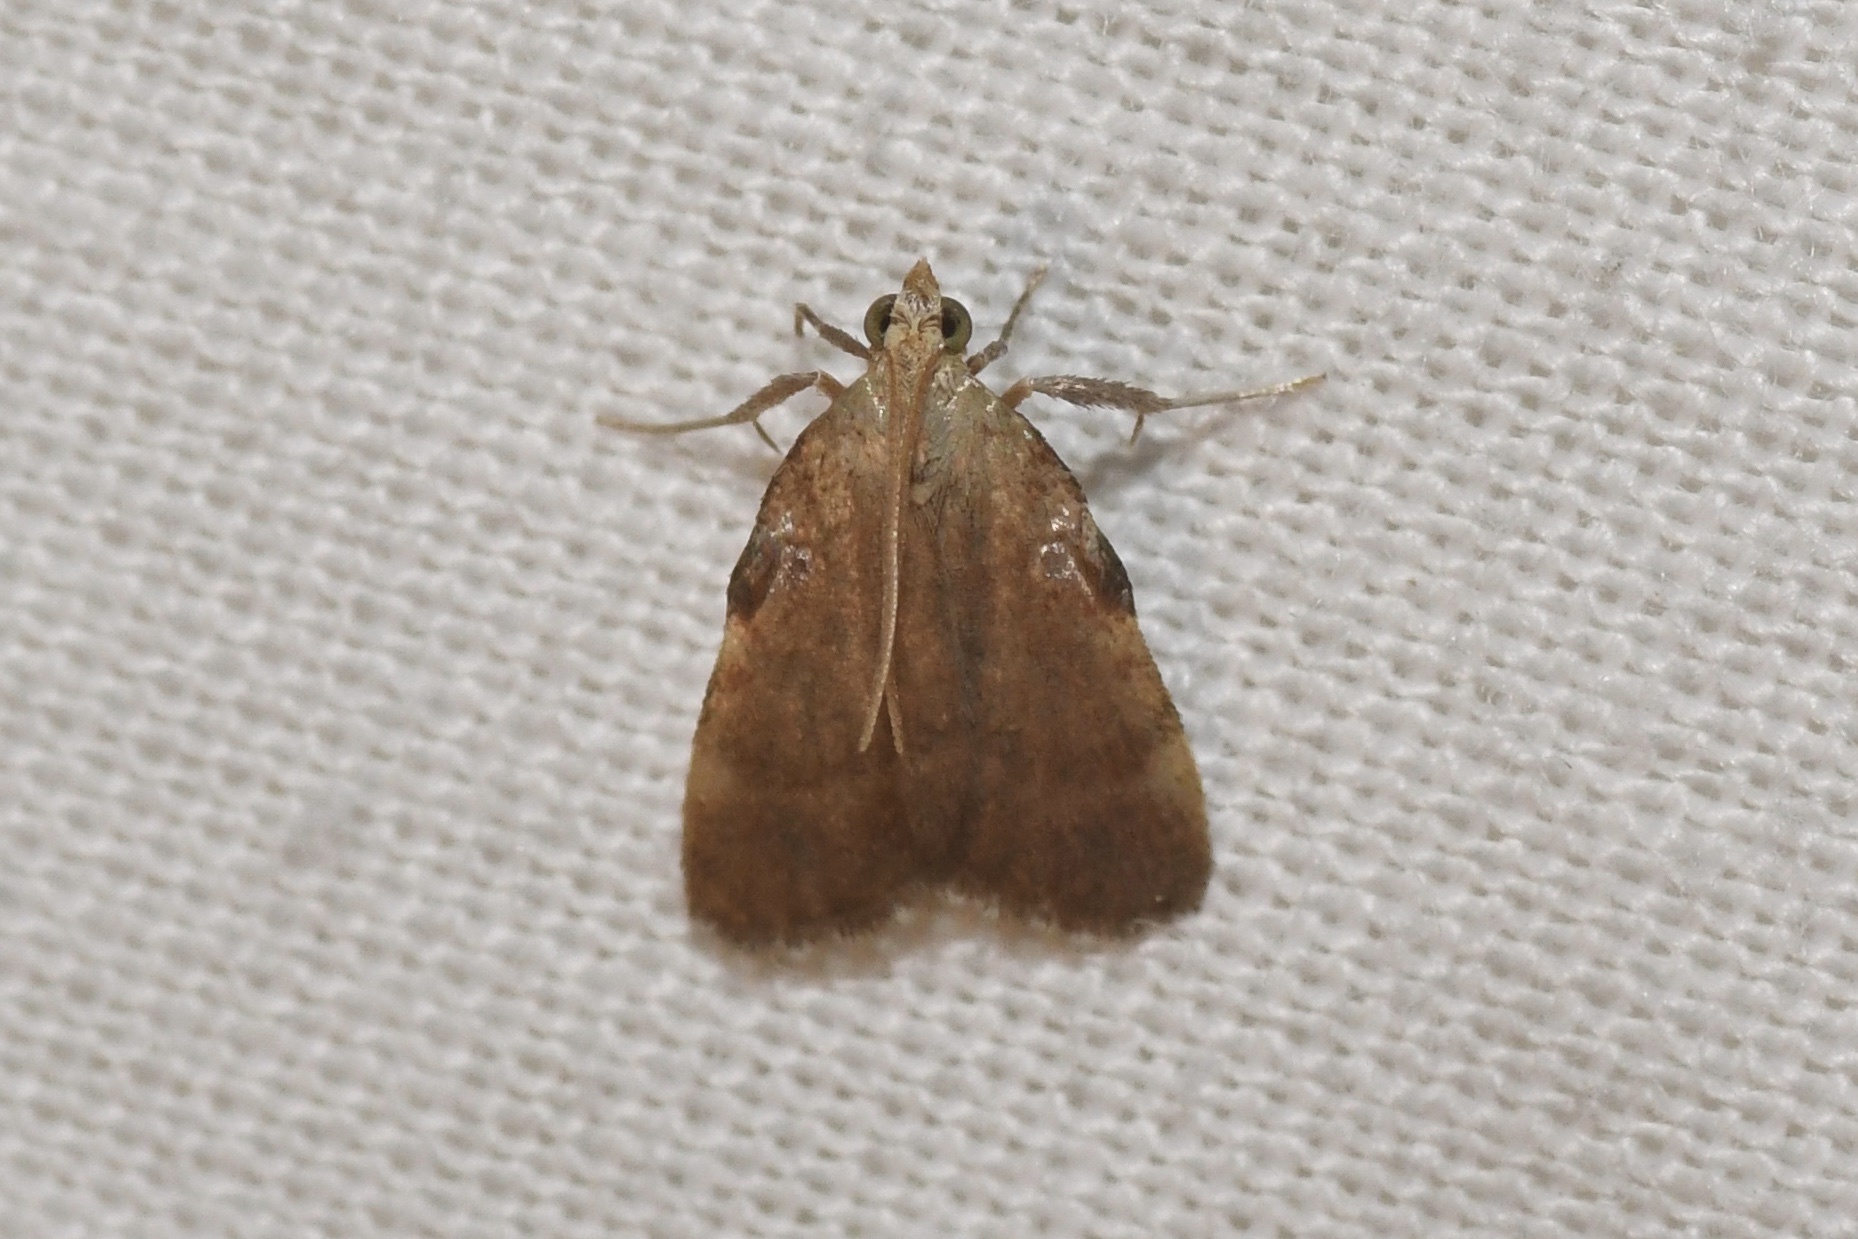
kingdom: Animalia
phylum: Arthropoda
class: Insecta
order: Lepidoptera
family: Pyralidae
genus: Condylolomia
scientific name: Condylolomia participialis
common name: Drab condylolomia moth
